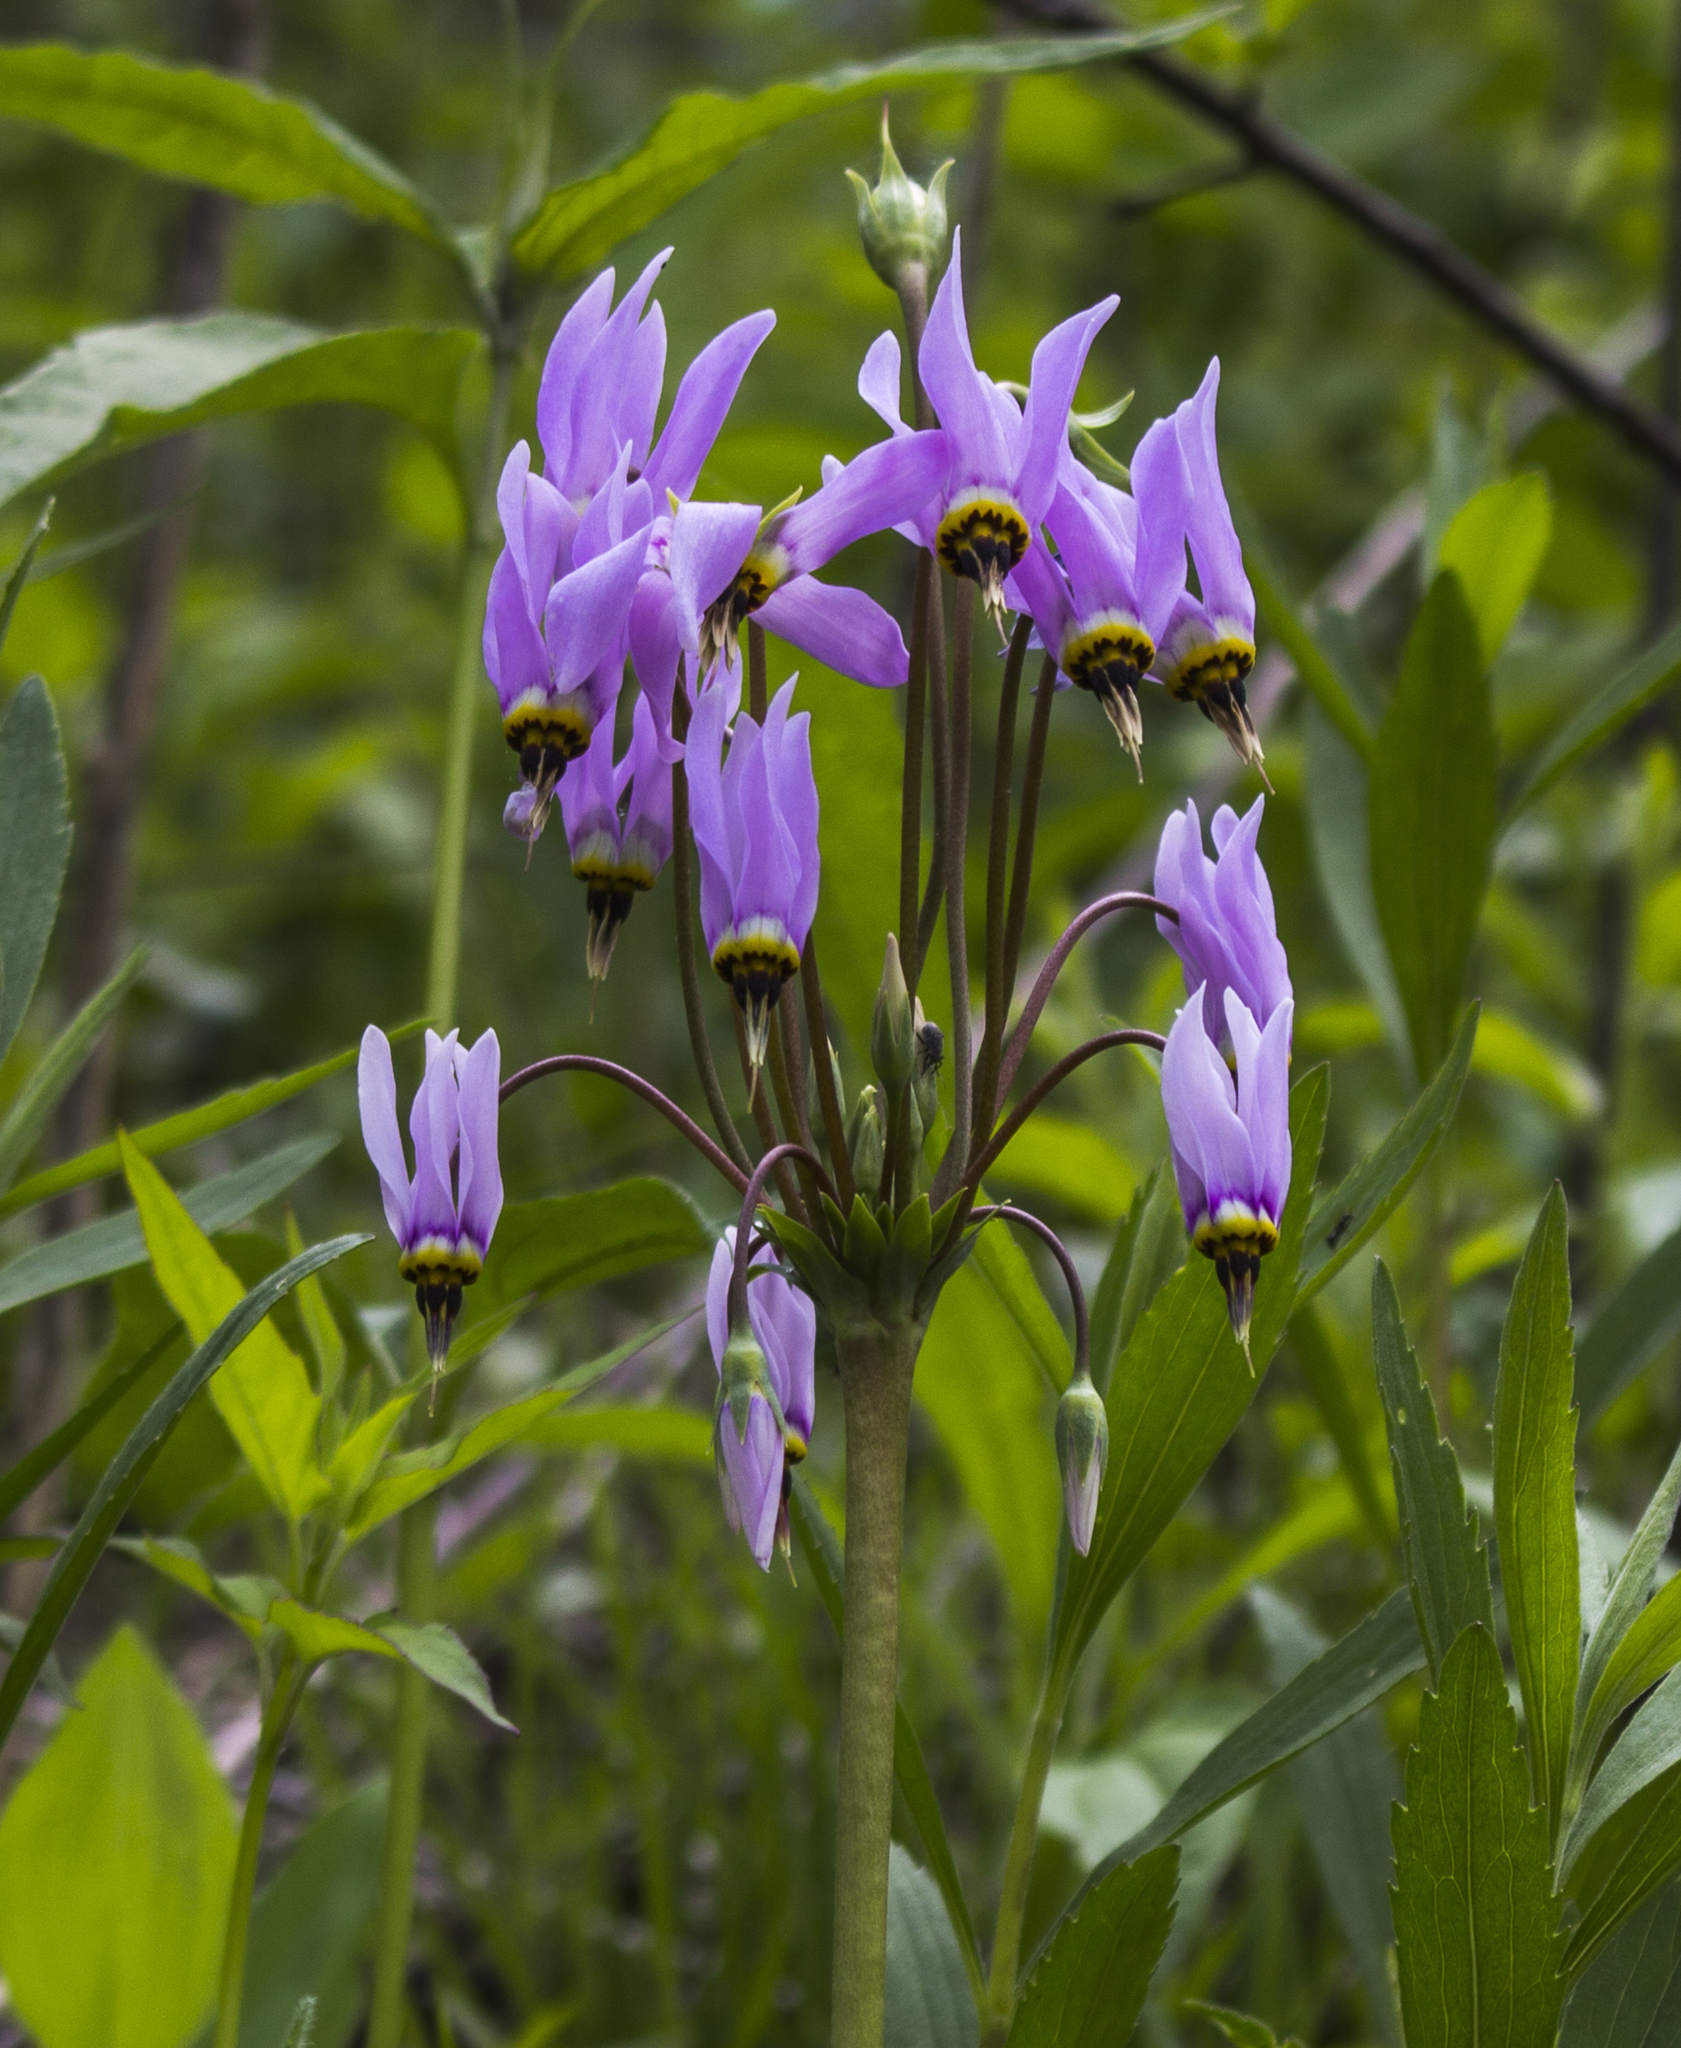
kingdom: Plantae
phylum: Tracheophyta
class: Magnoliopsida
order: Ericales
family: Primulaceae
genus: Dodecatheon
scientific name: Dodecatheon meadia
